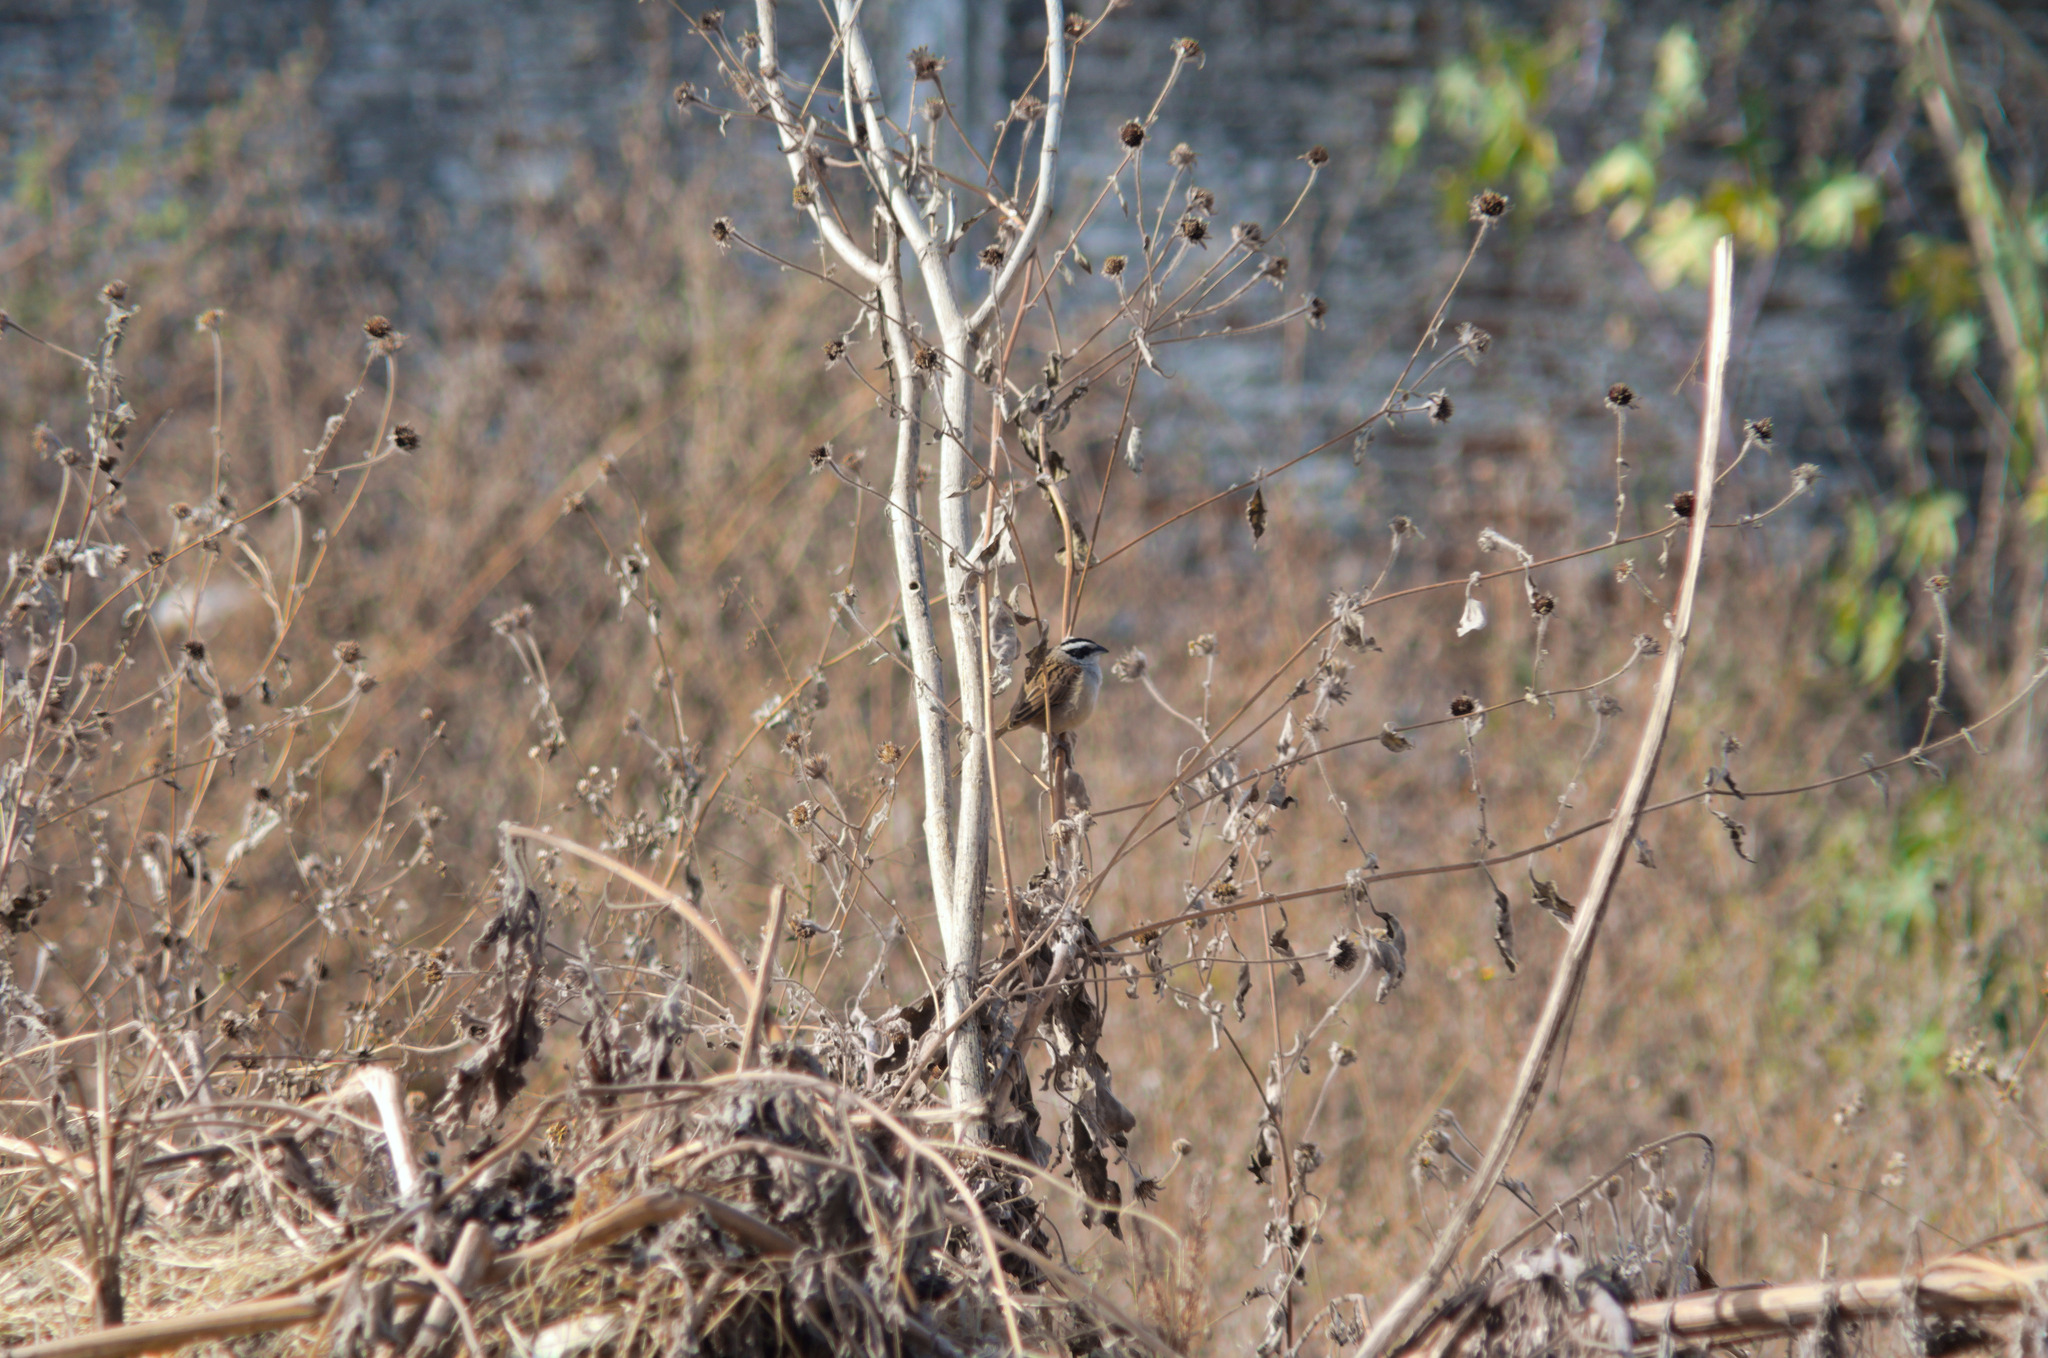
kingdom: Animalia
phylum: Chordata
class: Aves
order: Passeriformes
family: Passerellidae
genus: Peucaea
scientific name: Peucaea ruficauda
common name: Stripe-headed sparrow
